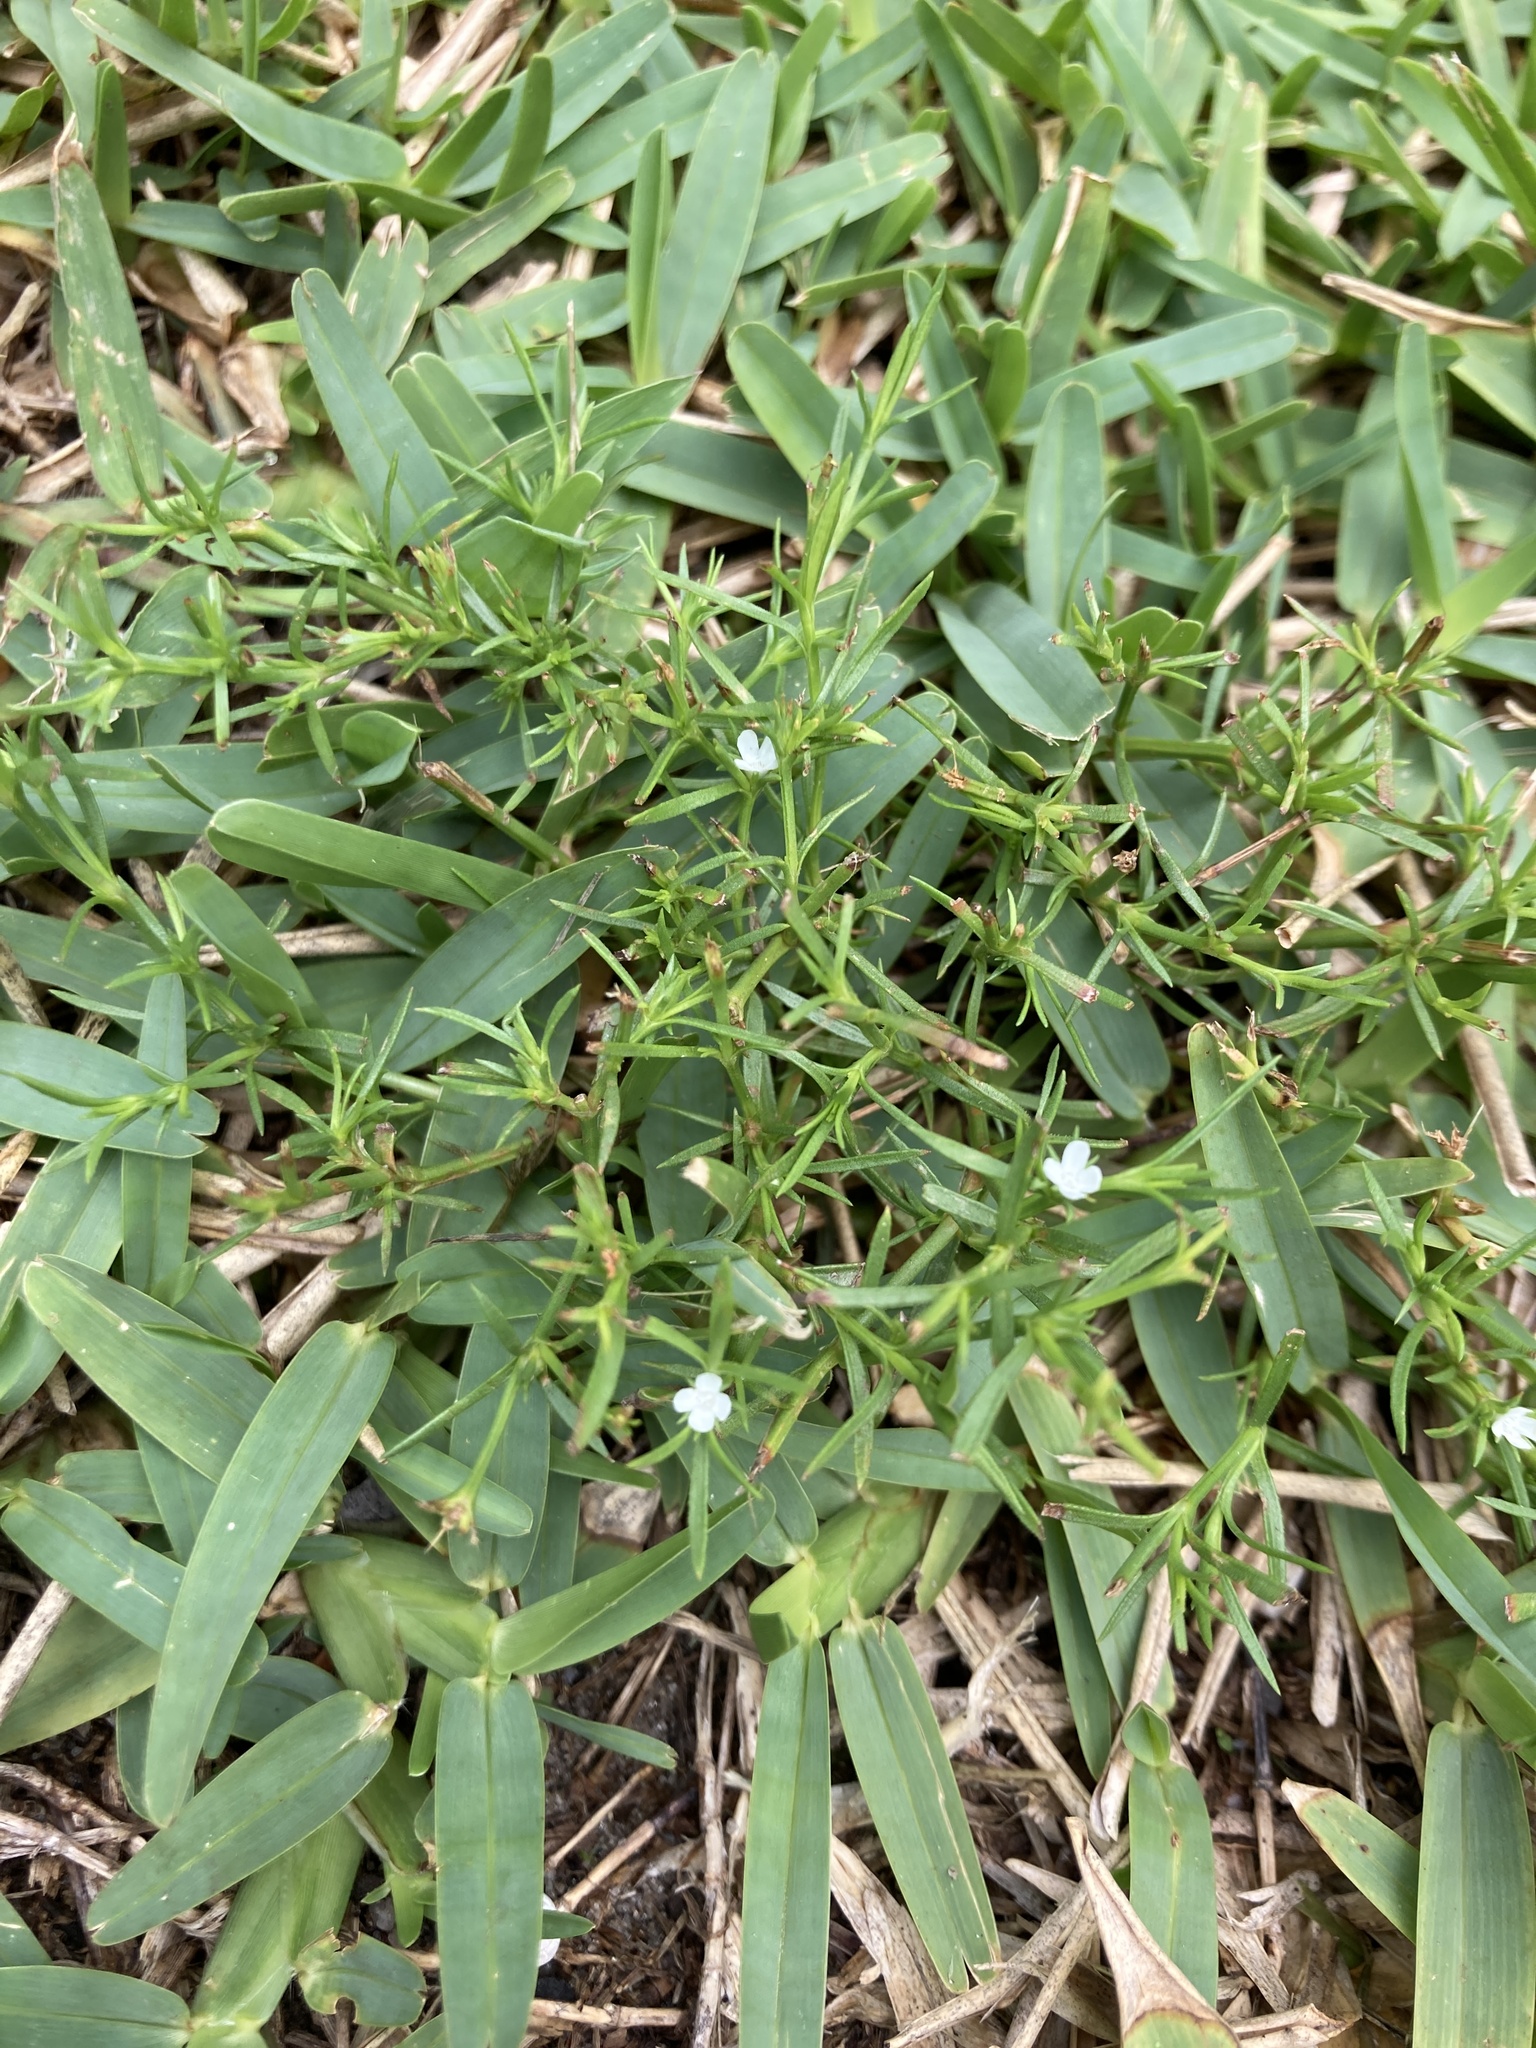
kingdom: Plantae
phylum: Tracheophyta
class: Magnoliopsida
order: Lamiales
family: Tetrachondraceae
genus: Polypremum
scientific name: Polypremum procumbens
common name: Juniper-leaf
